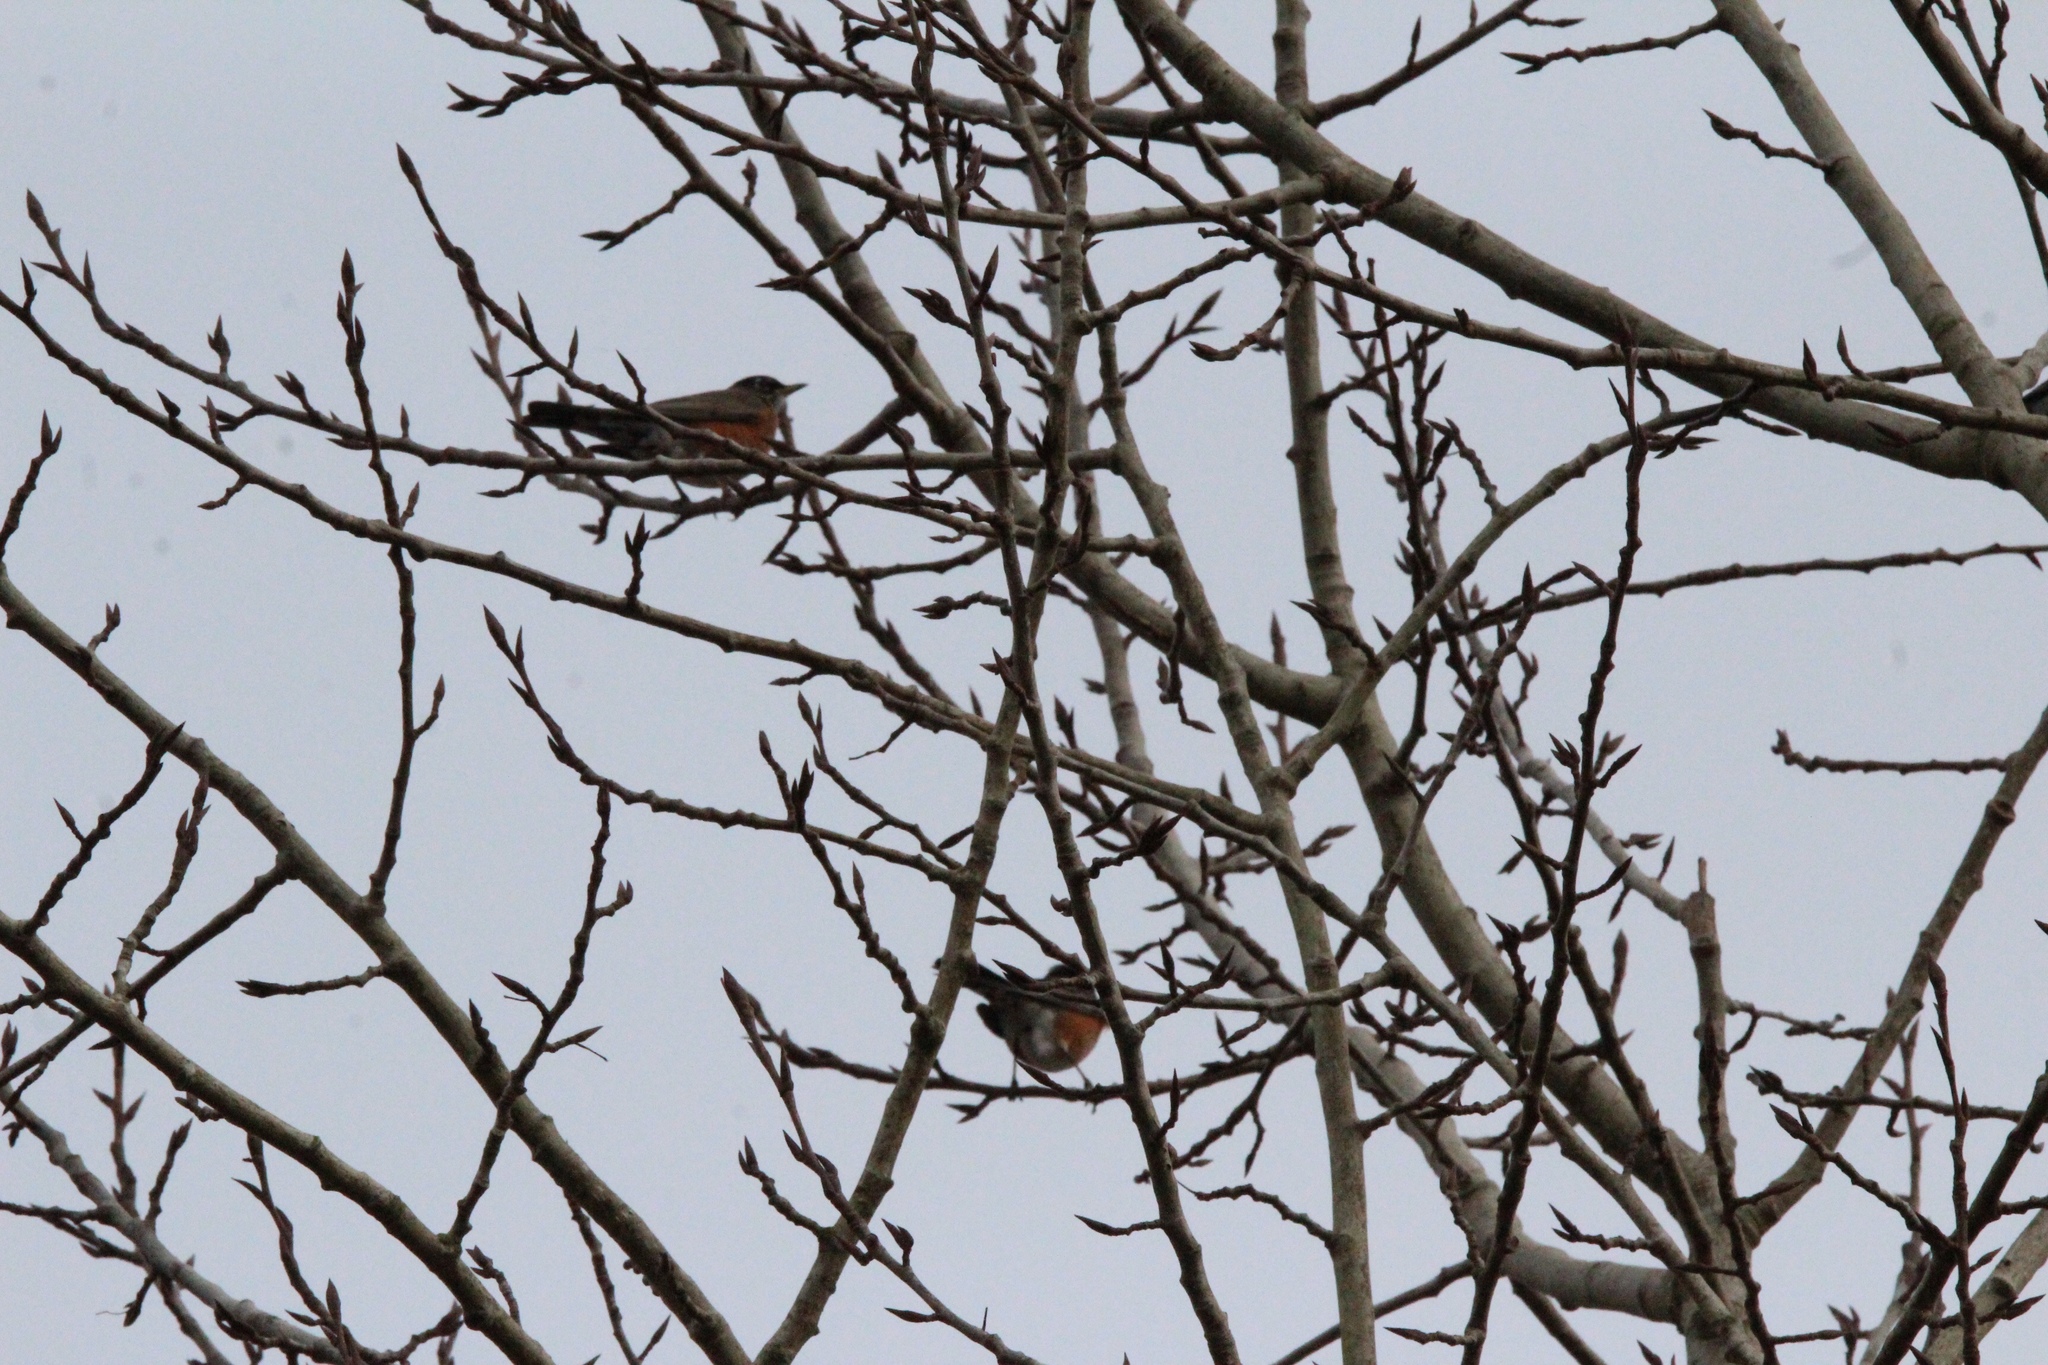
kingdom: Animalia
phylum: Chordata
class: Aves
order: Passeriformes
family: Turdidae
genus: Turdus
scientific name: Turdus migratorius
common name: American robin
